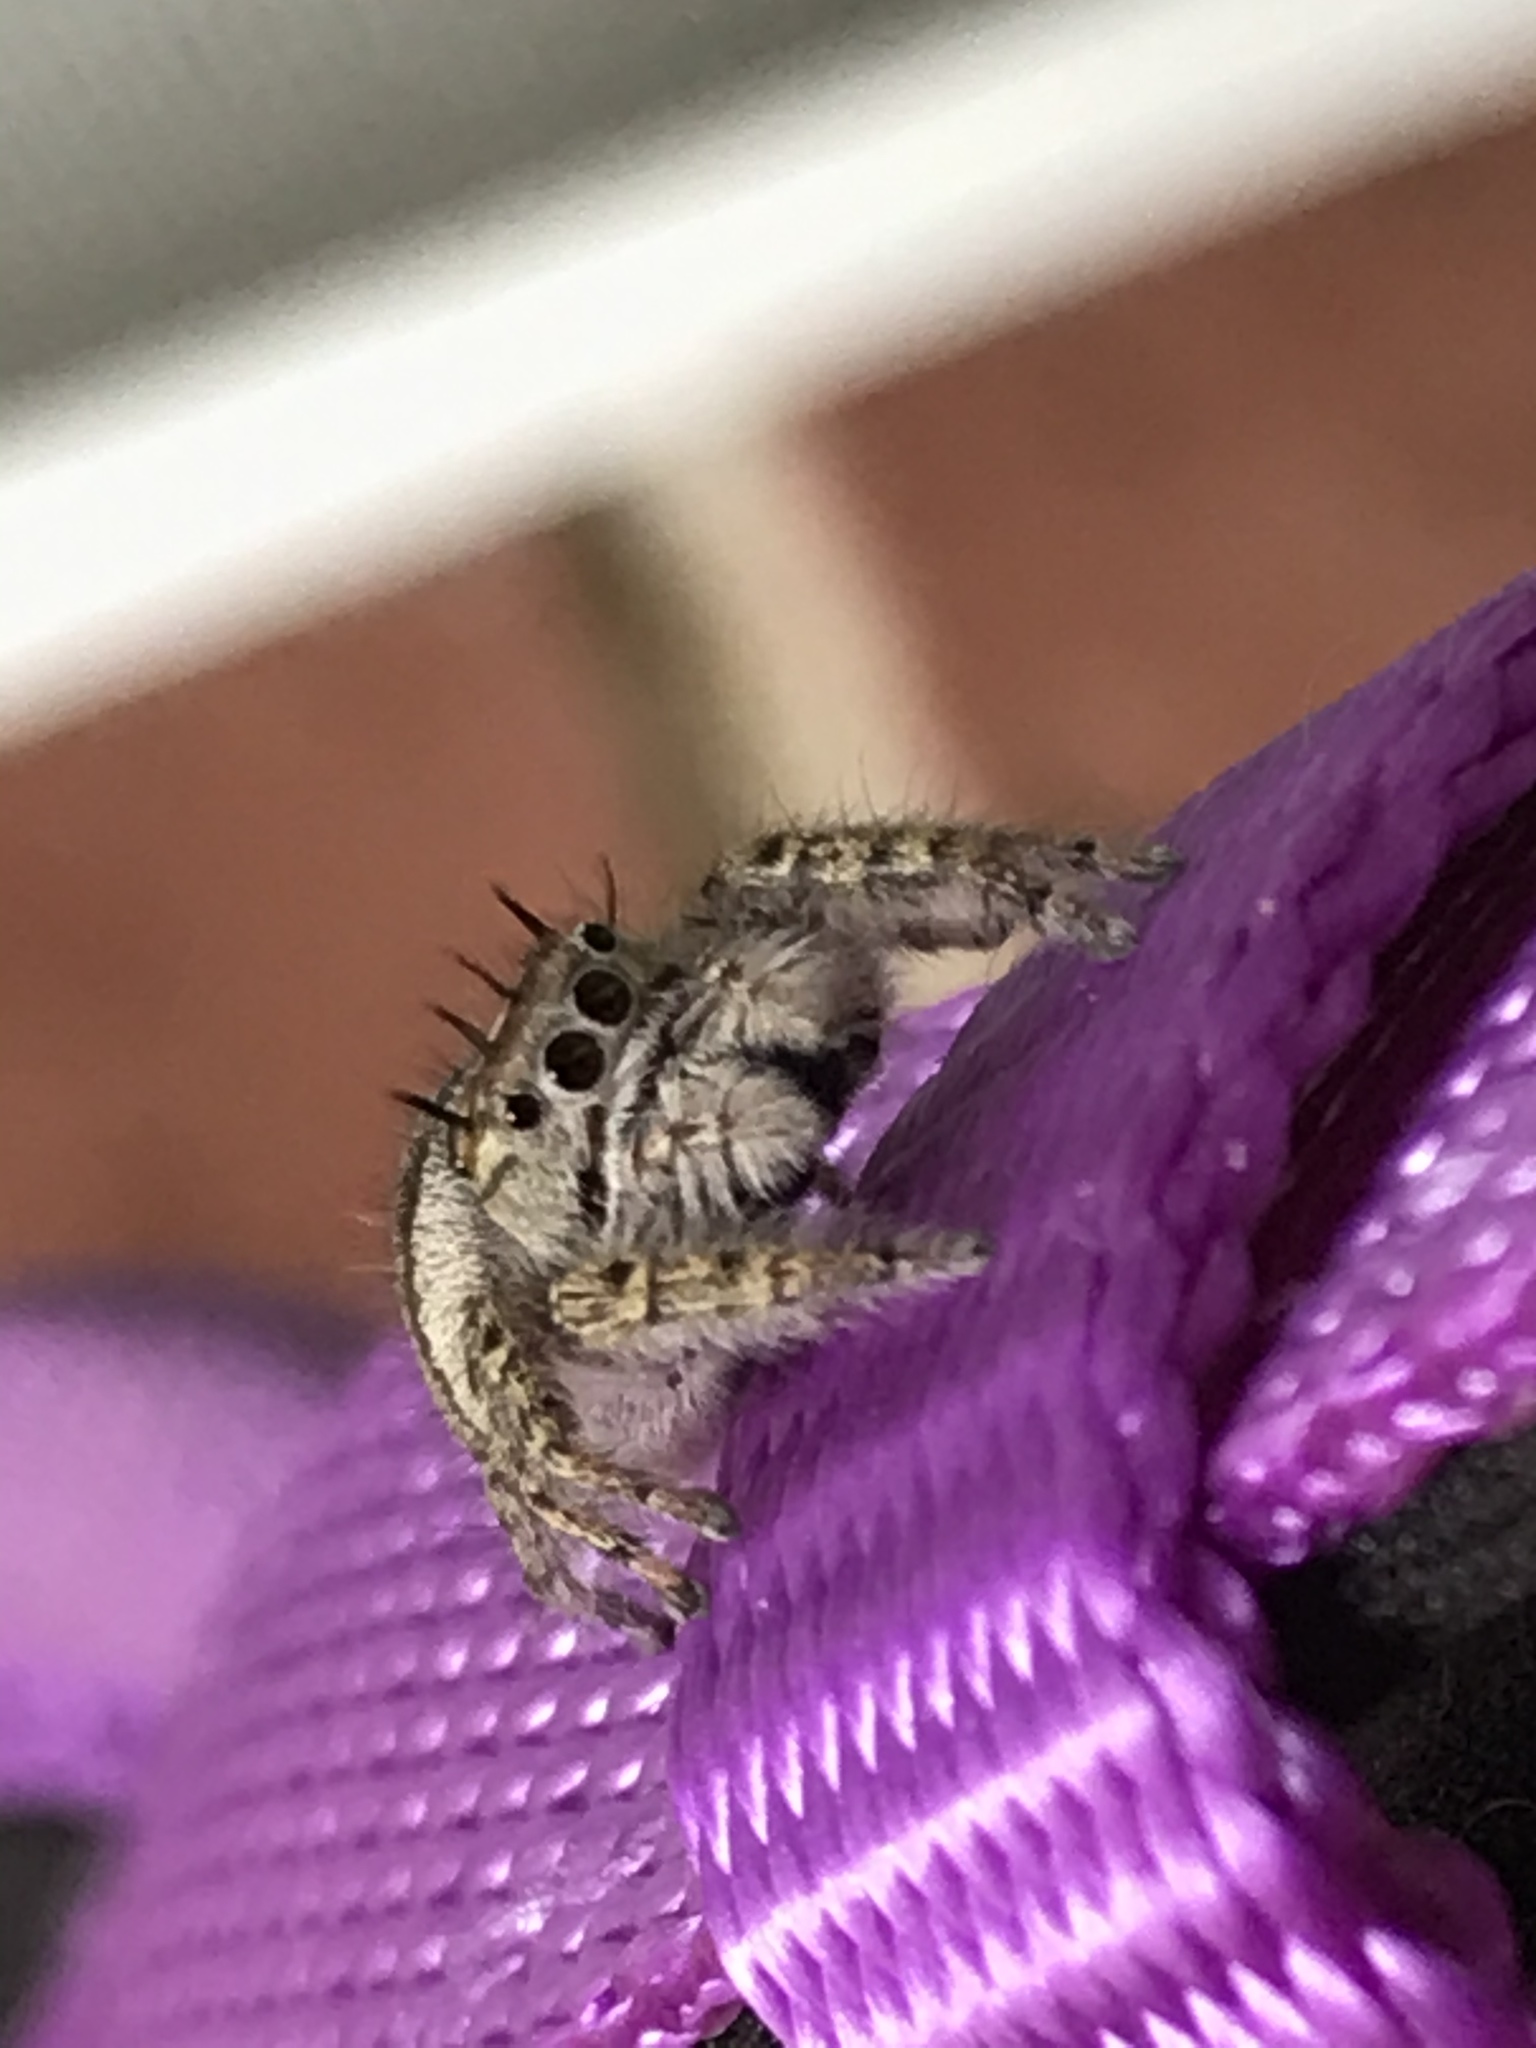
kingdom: Animalia
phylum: Arthropoda
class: Arachnida
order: Araneae
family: Salticidae
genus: Phidippus
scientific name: Phidippus putnami
